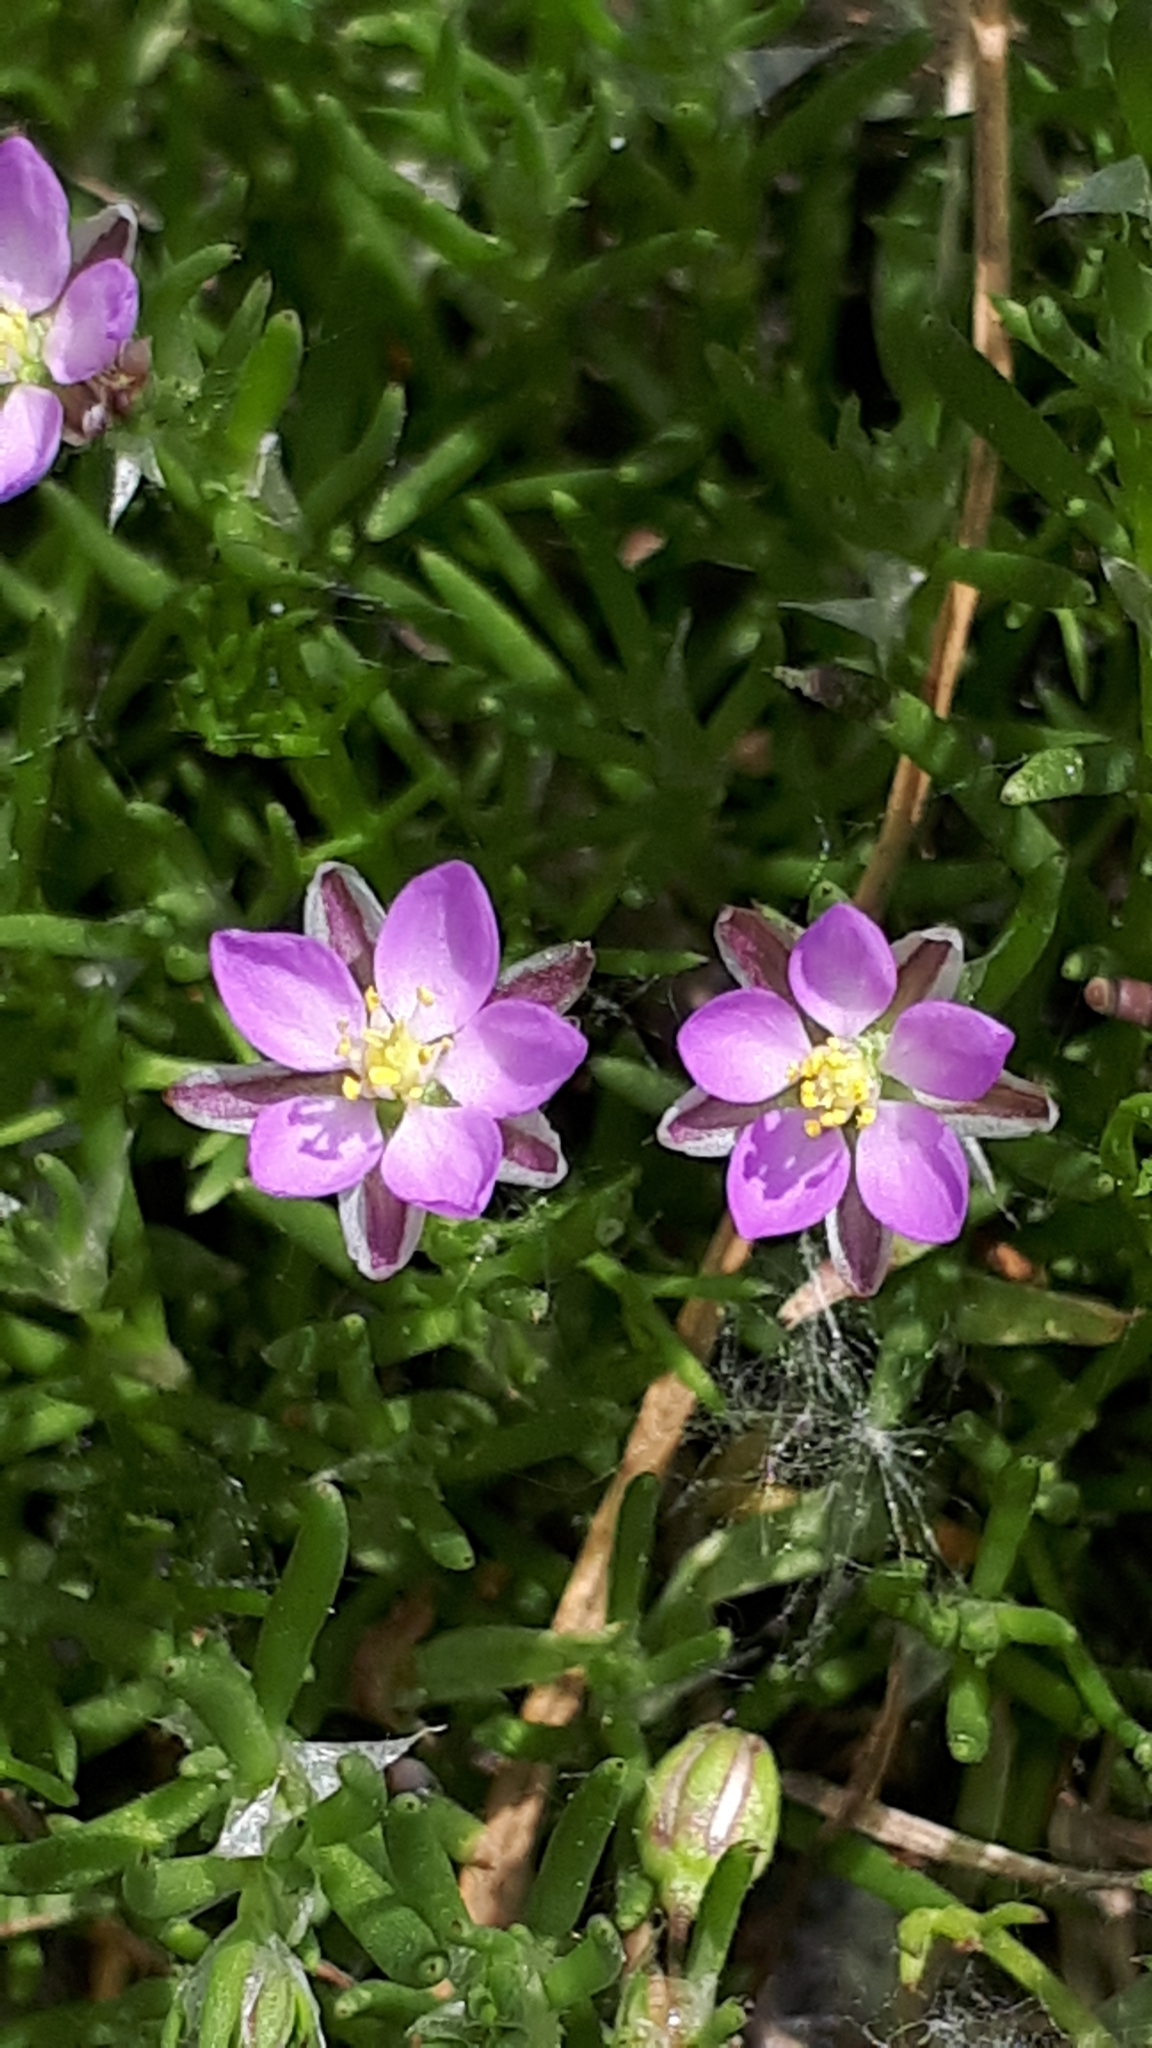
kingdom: Plantae
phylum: Tracheophyta
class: Magnoliopsida
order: Caryophyllales
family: Caryophyllaceae
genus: Spergularia
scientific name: Spergularia rubra
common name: Red sand-spurrey
